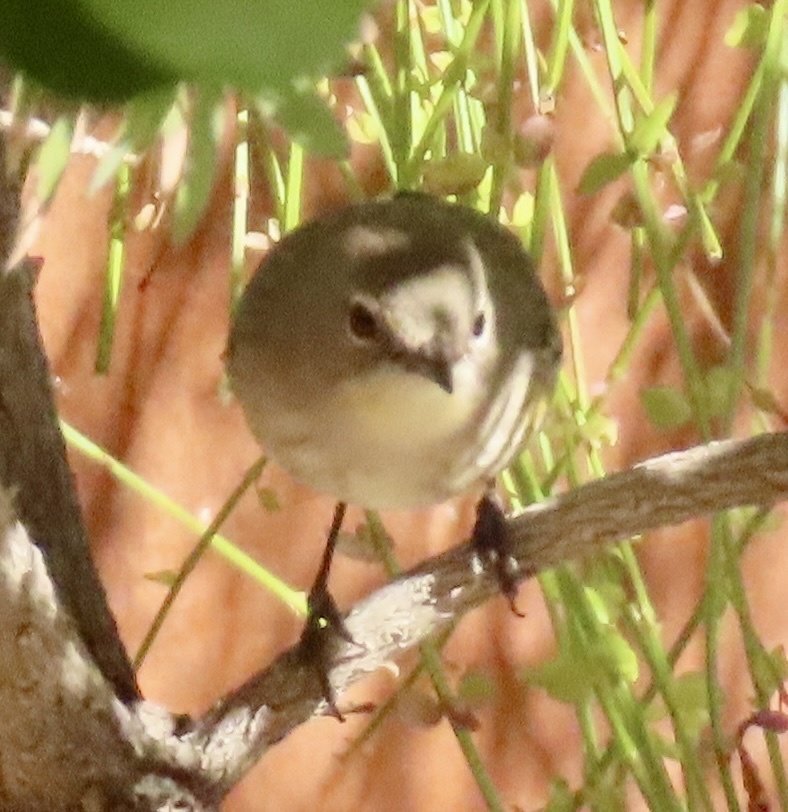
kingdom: Animalia
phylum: Chordata
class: Aves
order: Passeriformes
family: Parulidae
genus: Setophaga
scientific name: Setophaga coronata
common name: Myrtle warbler
